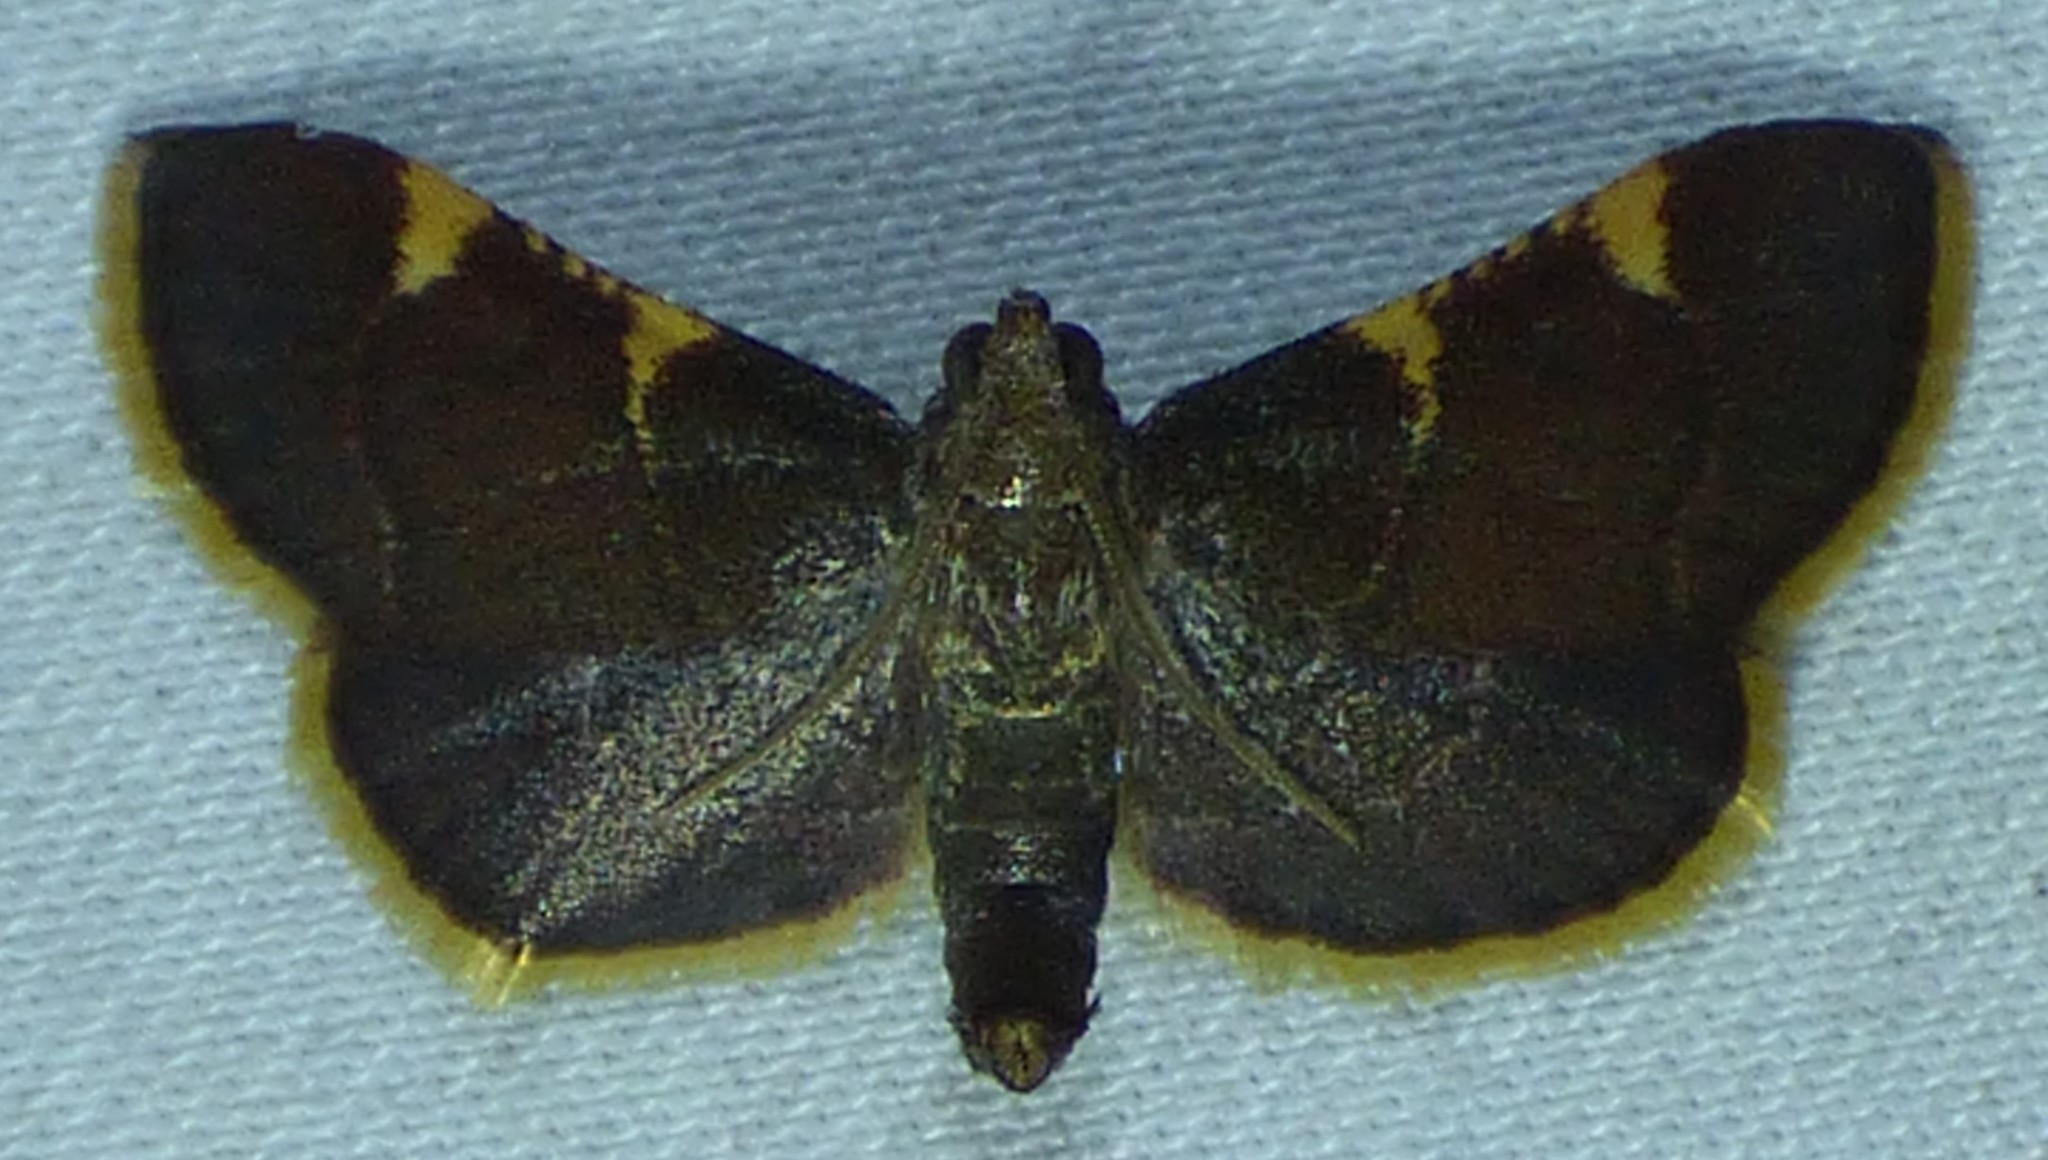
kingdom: Animalia
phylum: Arthropoda
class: Insecta
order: Lepidoptera
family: Pyralidae
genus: Hypsopygia
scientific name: Hypsopygia olinalis
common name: Yellow-fringed dolichomia moth
